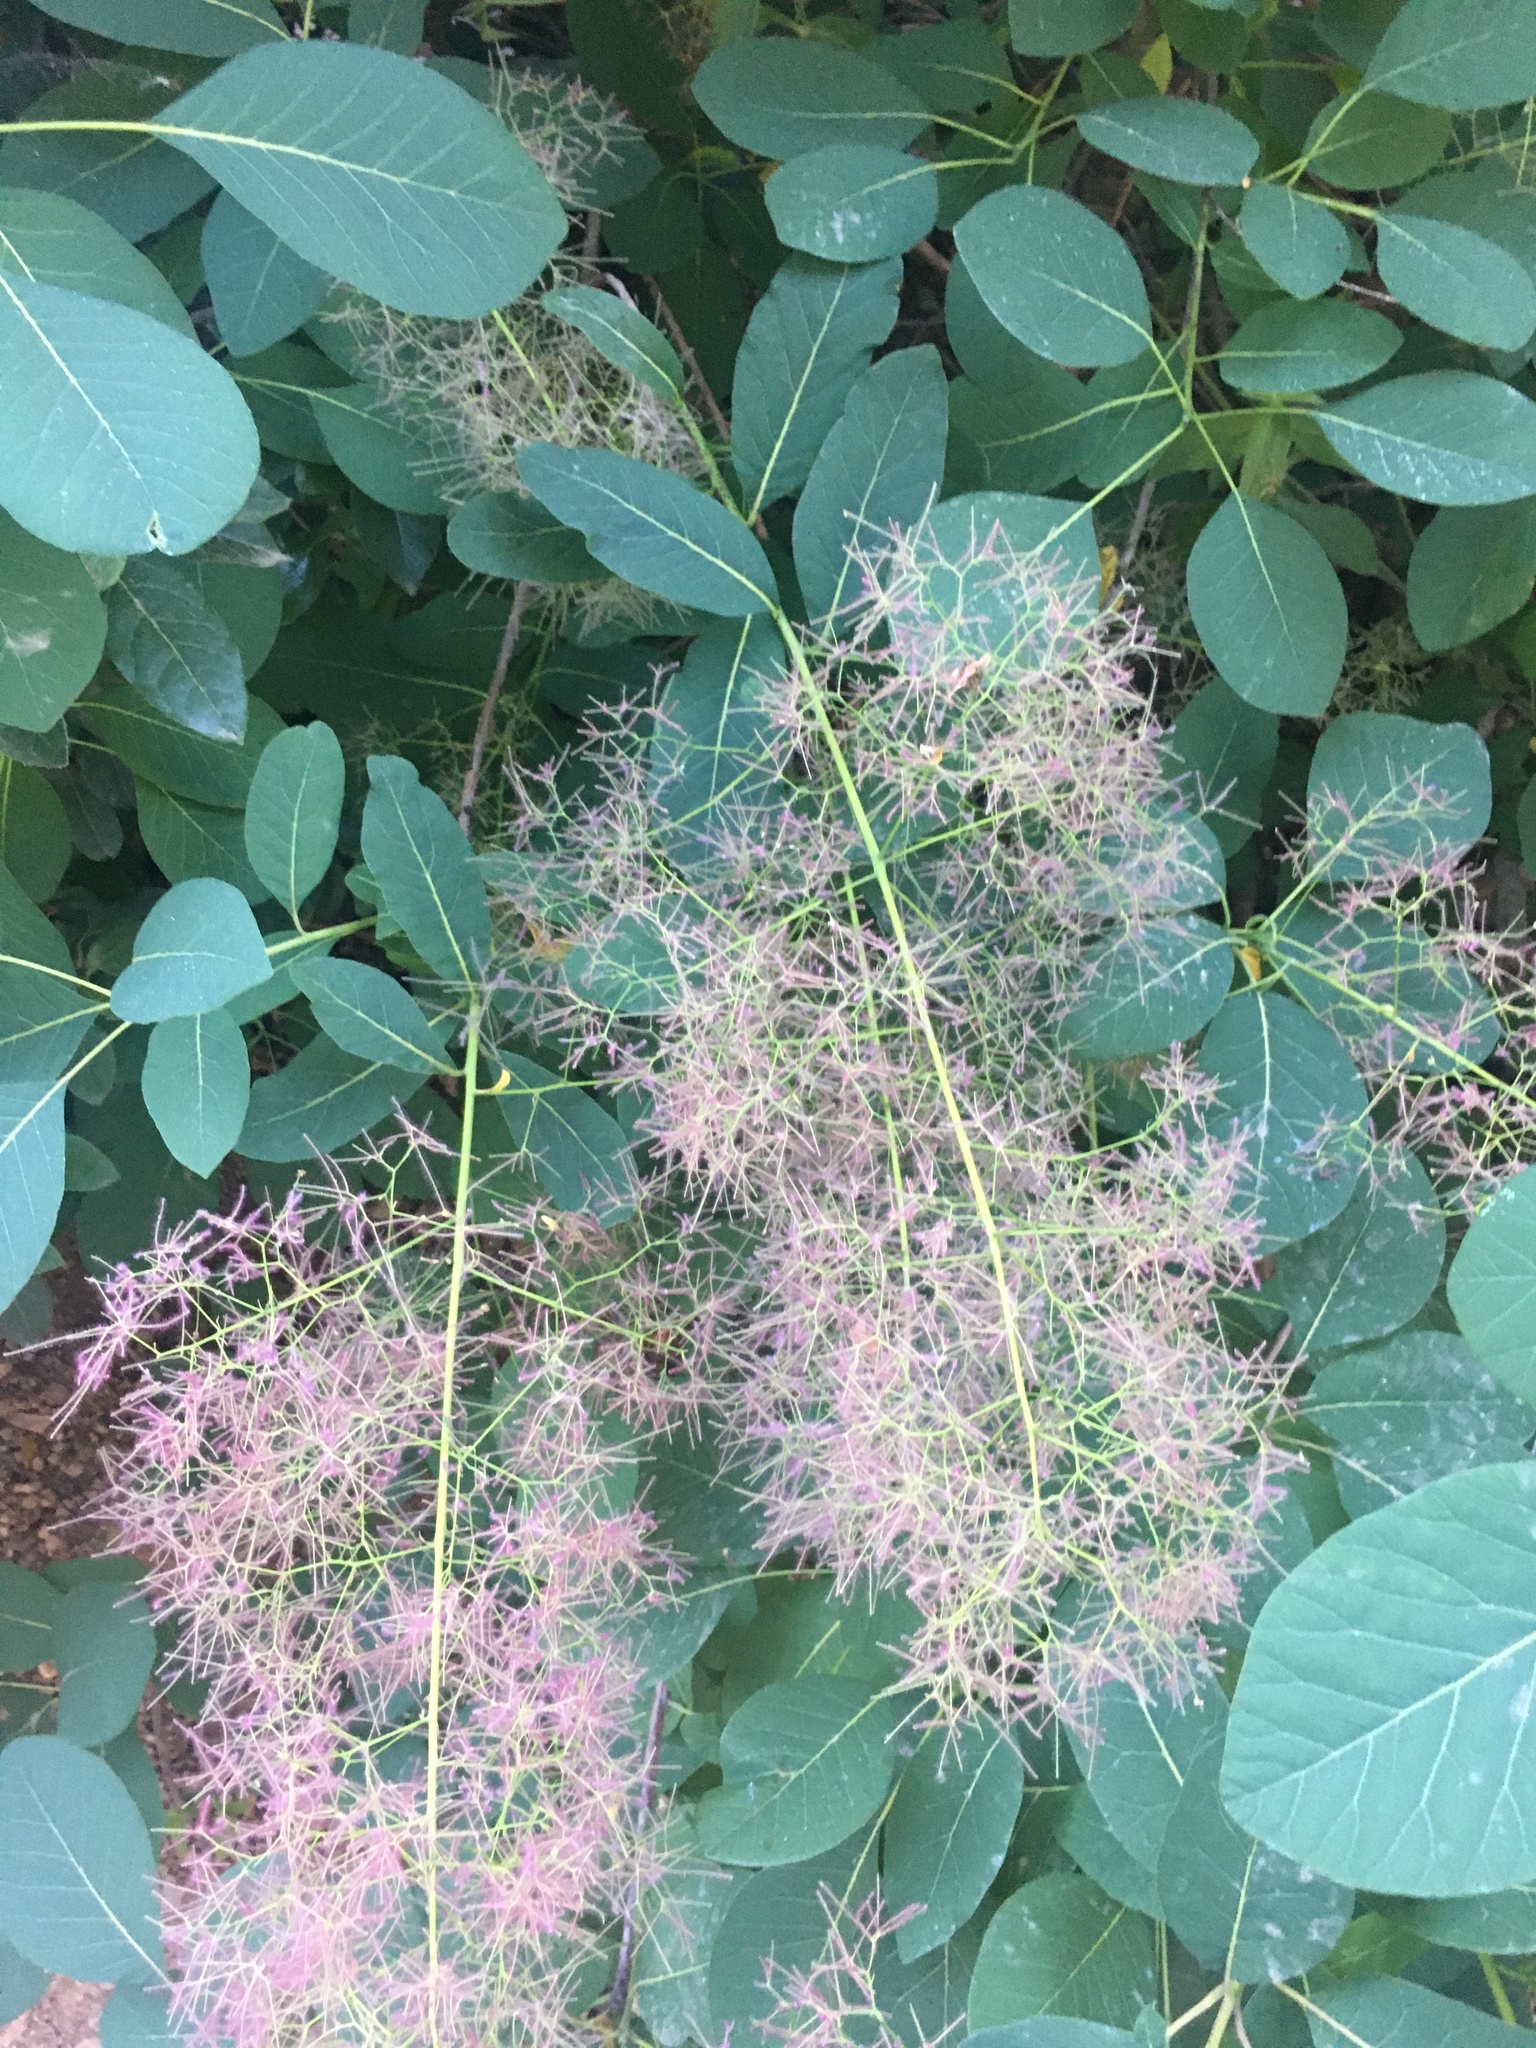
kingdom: Plantae
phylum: Tracheophyta
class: Magnoliopsida
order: Sapindales
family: Anacardiaceae
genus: Cotinus
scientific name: Cotinus coggygria
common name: Smoke-tree
